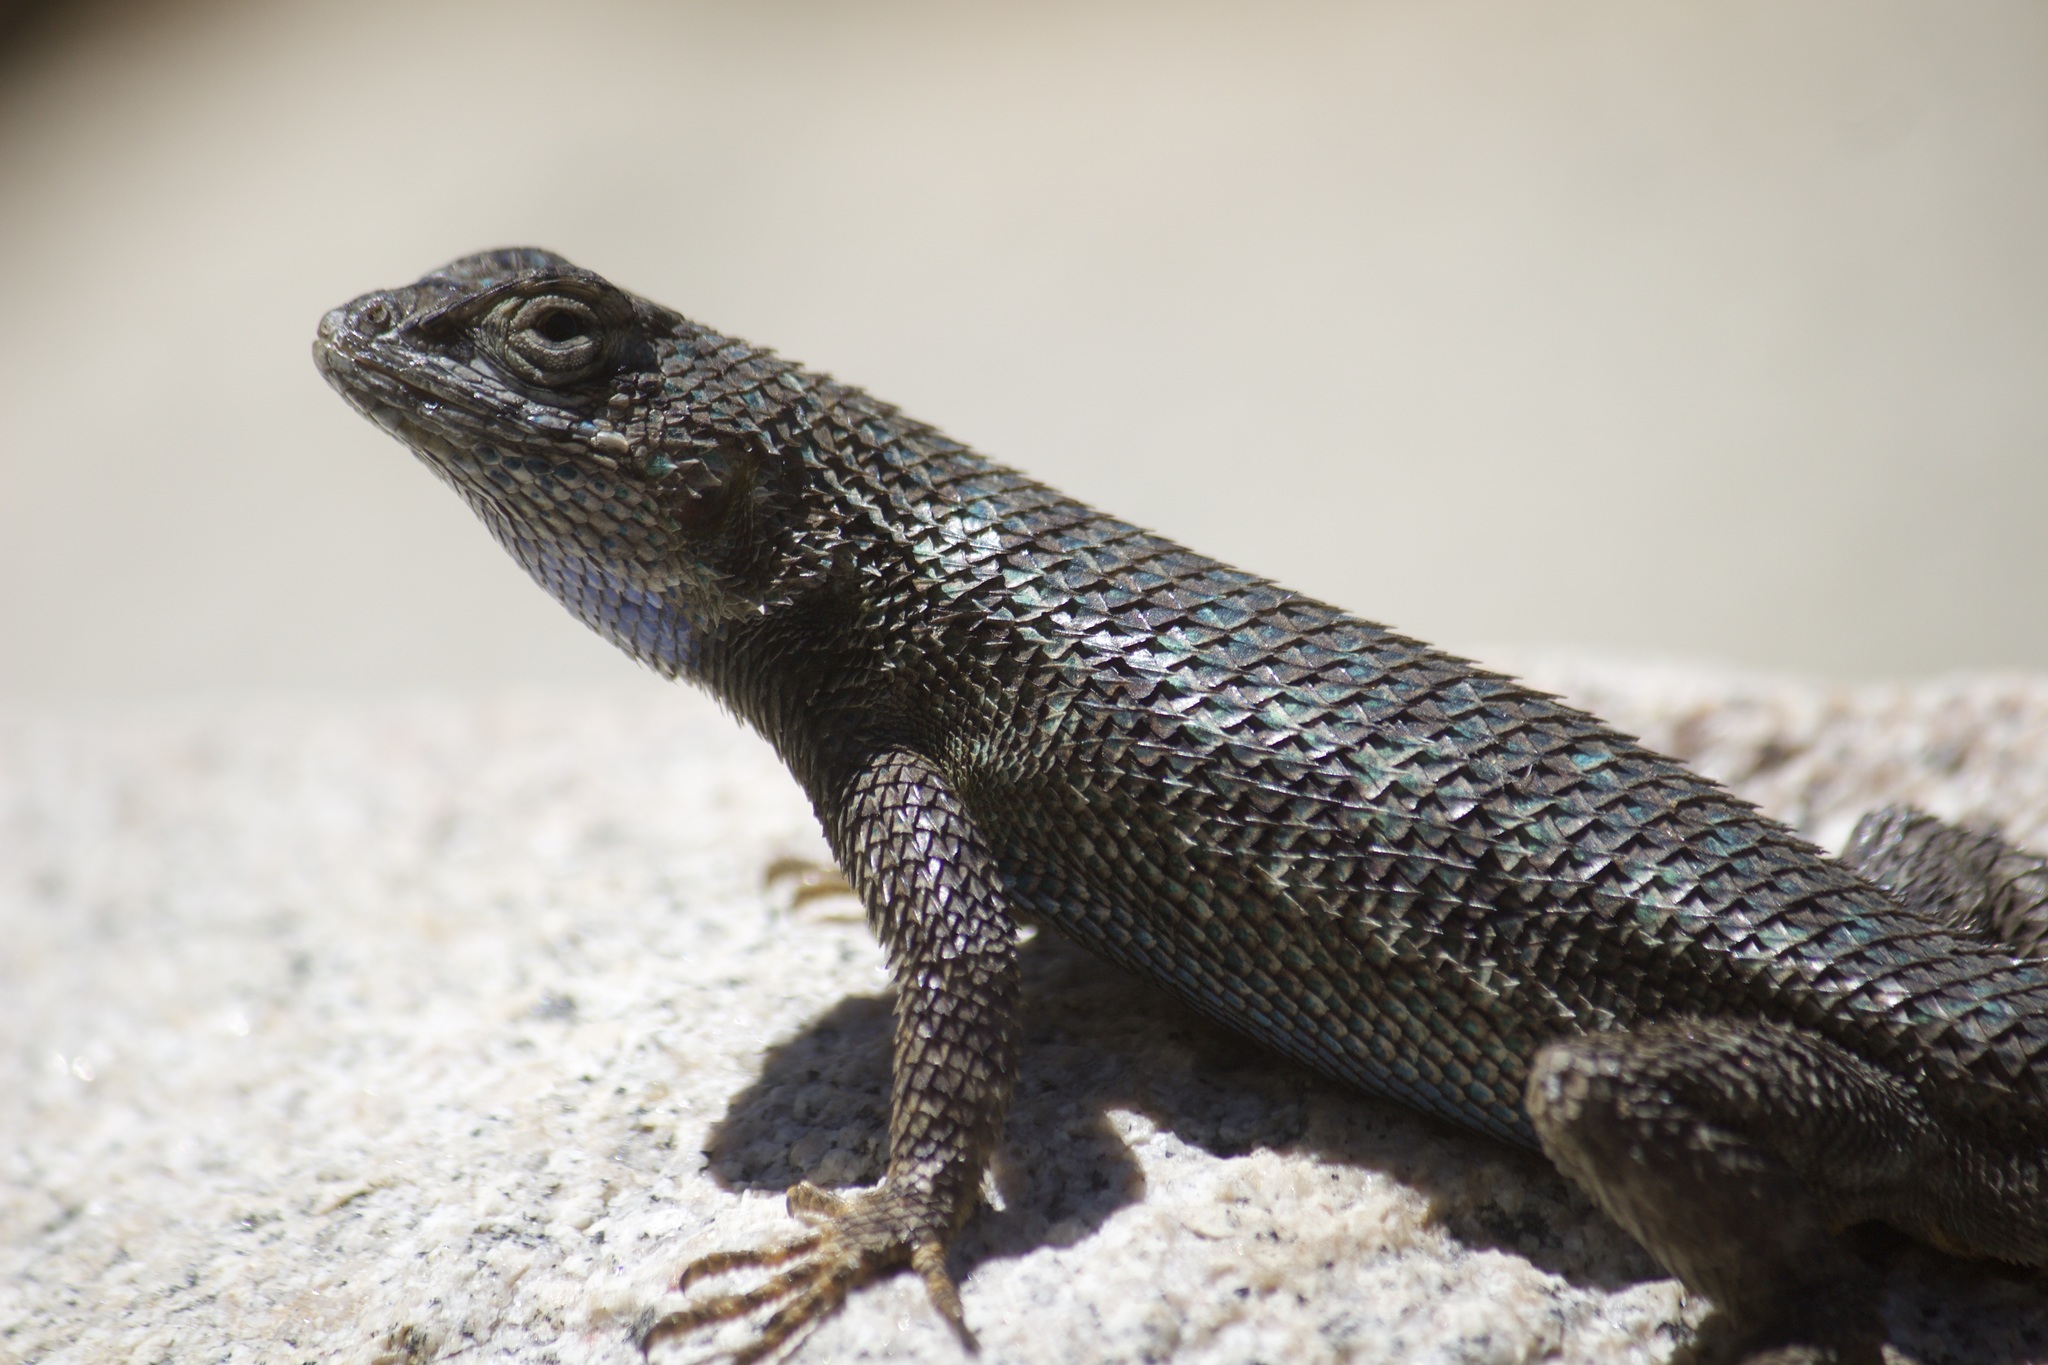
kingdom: Animalia
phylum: Chordata
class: Squamata
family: Phrynosomatidae
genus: Sceloporus
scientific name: Sceloporus occidentalis
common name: Western fence lizard
